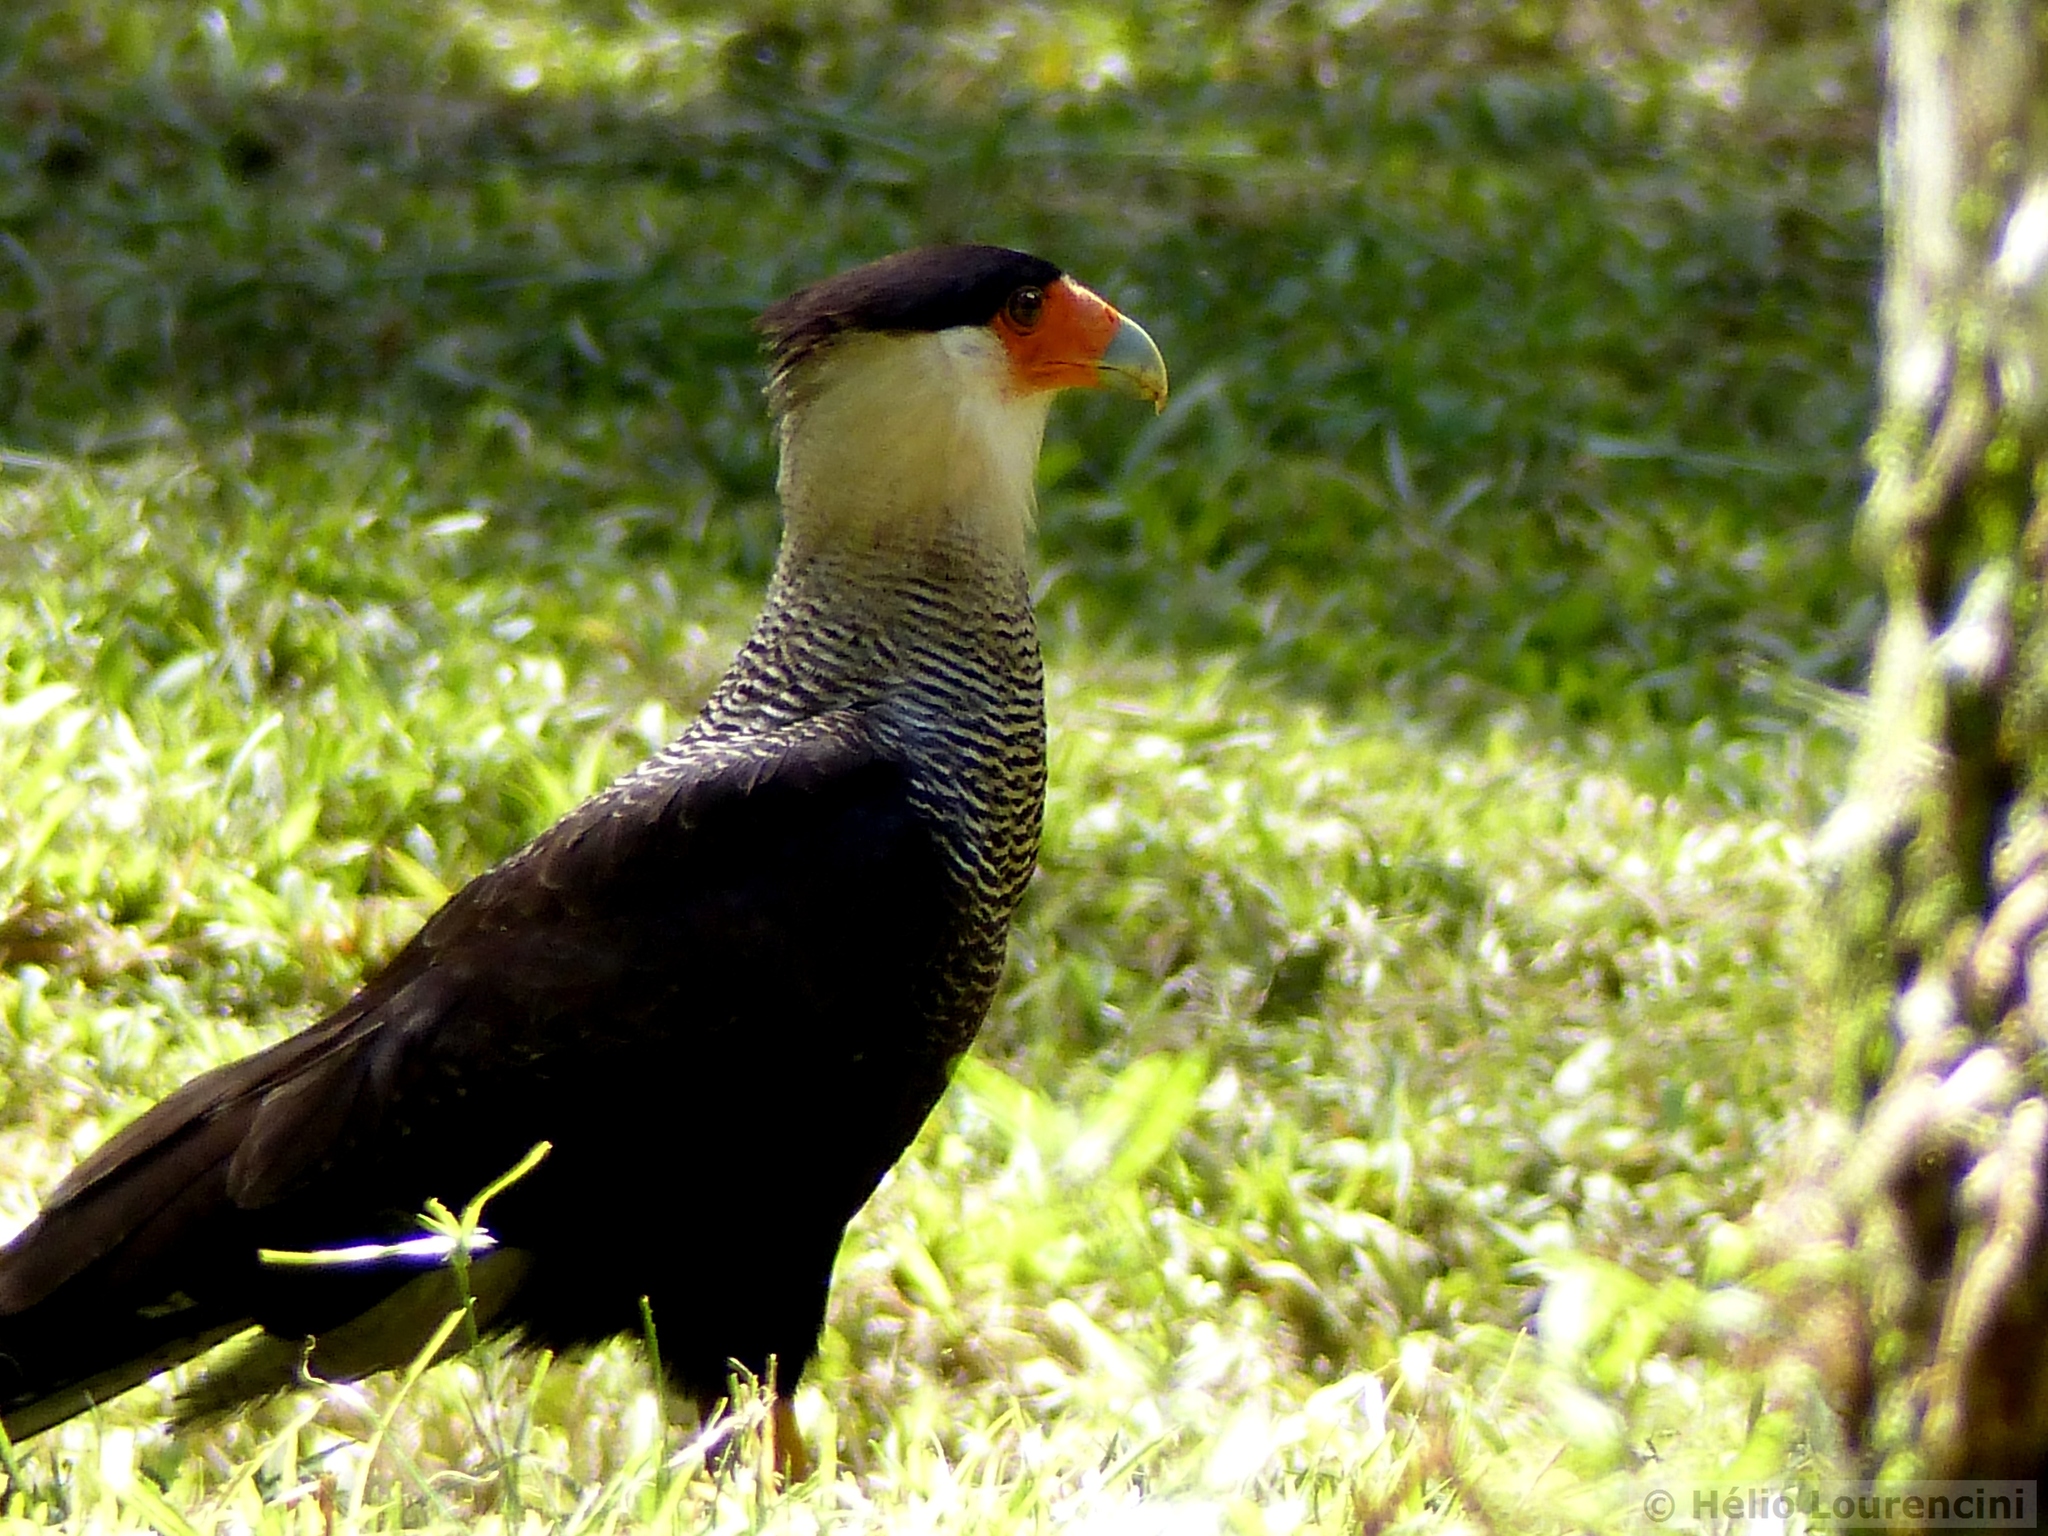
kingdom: Animalia
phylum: Chordata
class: Aves
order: Falconiformes
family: Falconidae
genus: Caracara
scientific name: Caracara plancus
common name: Southern caracara
